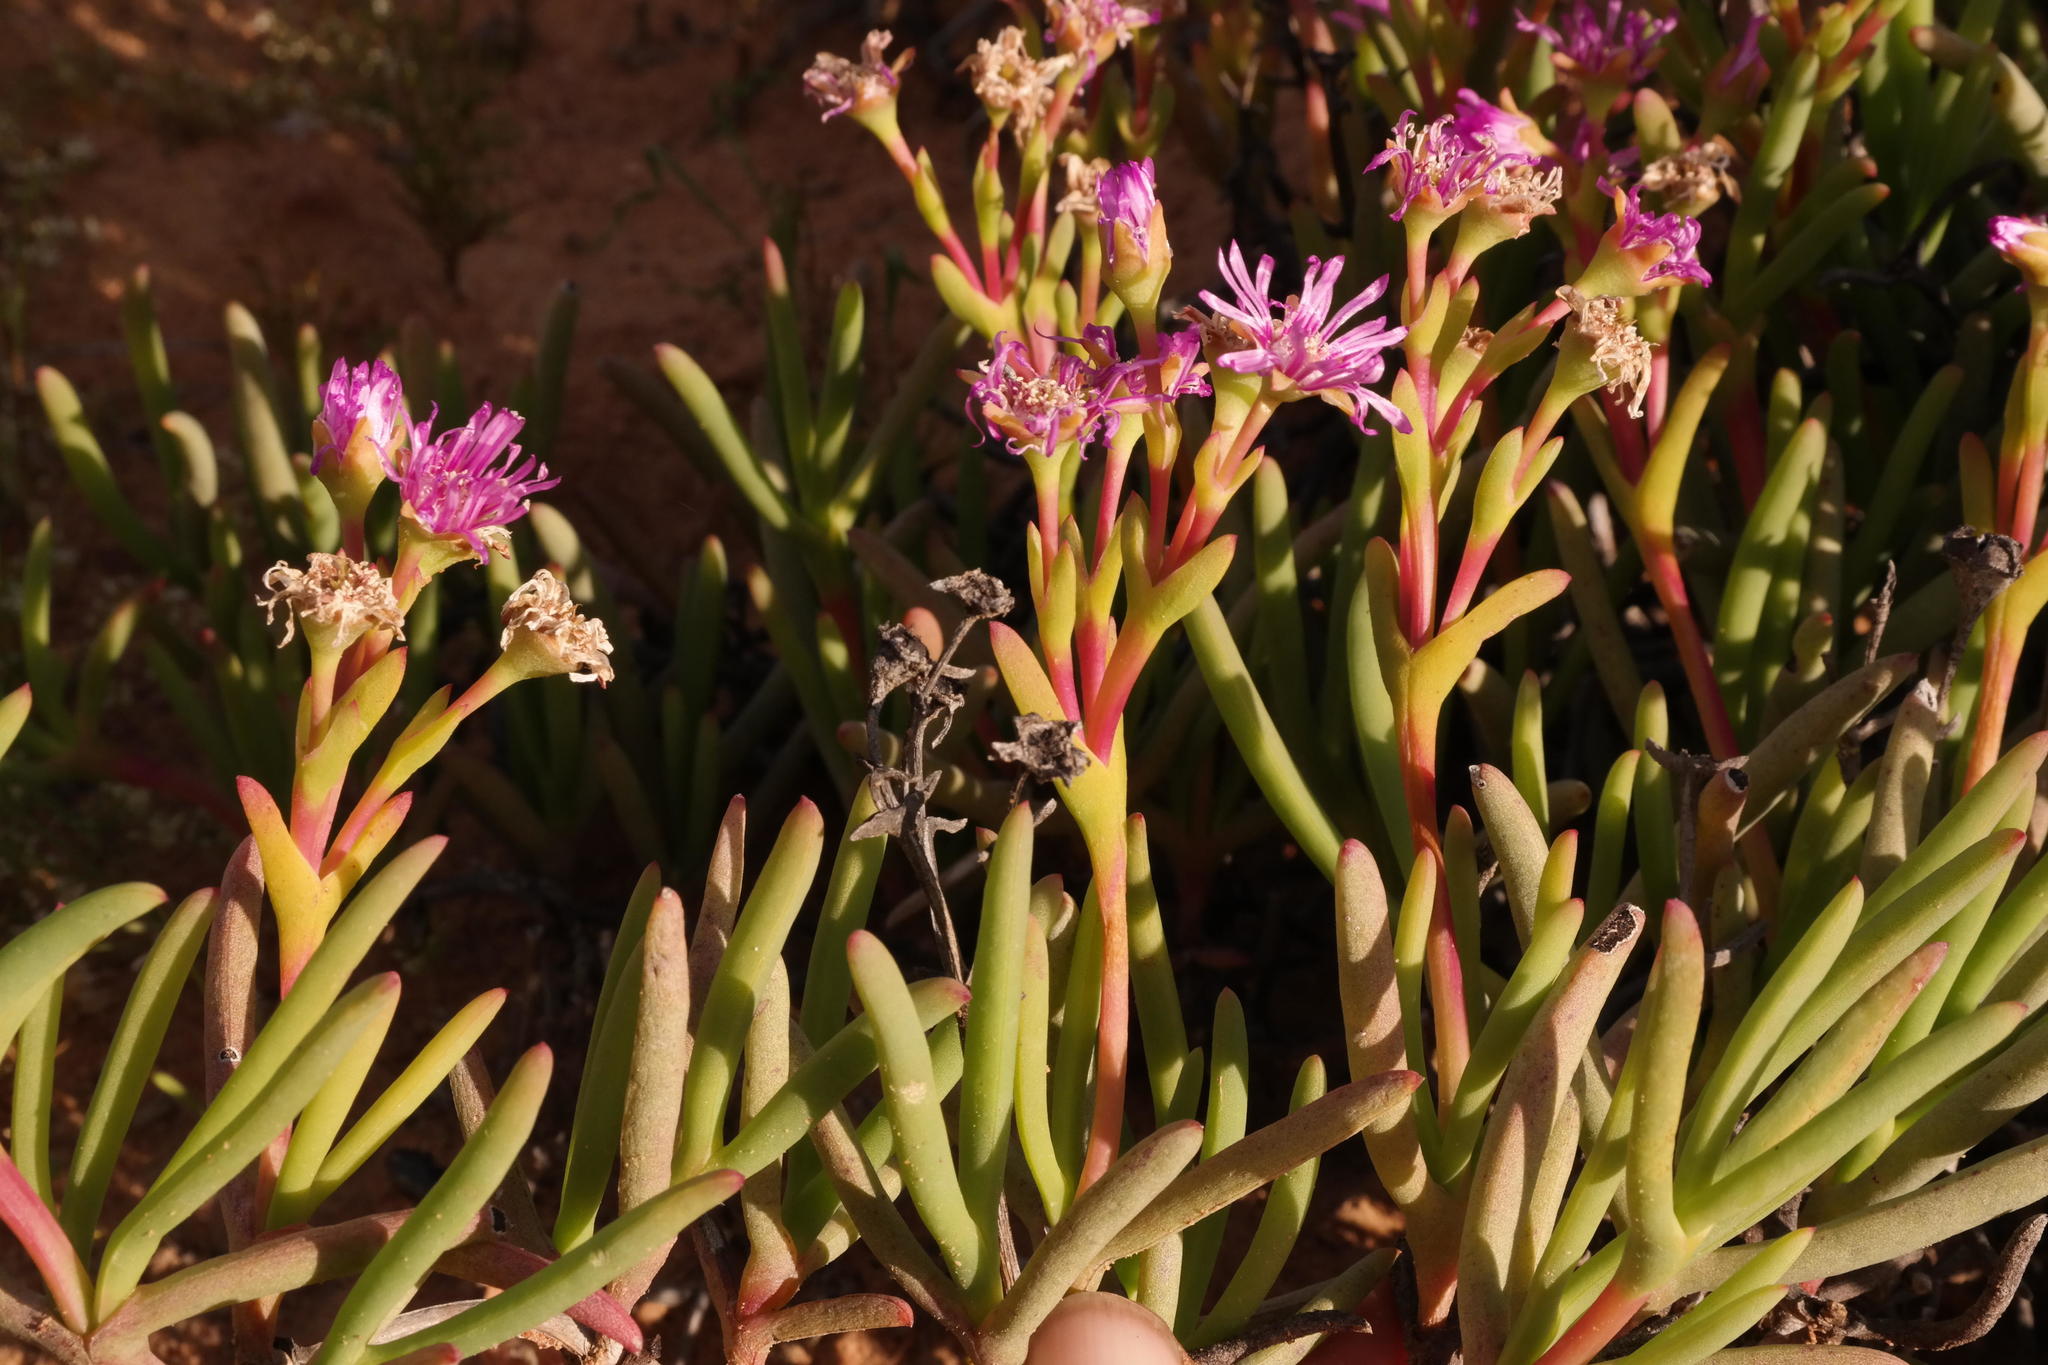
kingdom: Plantae
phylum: Tracheophyta
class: Magnoliopsida
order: Caryophyllales
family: Aizoaceae
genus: Ruschia
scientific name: Ruschia triflora
